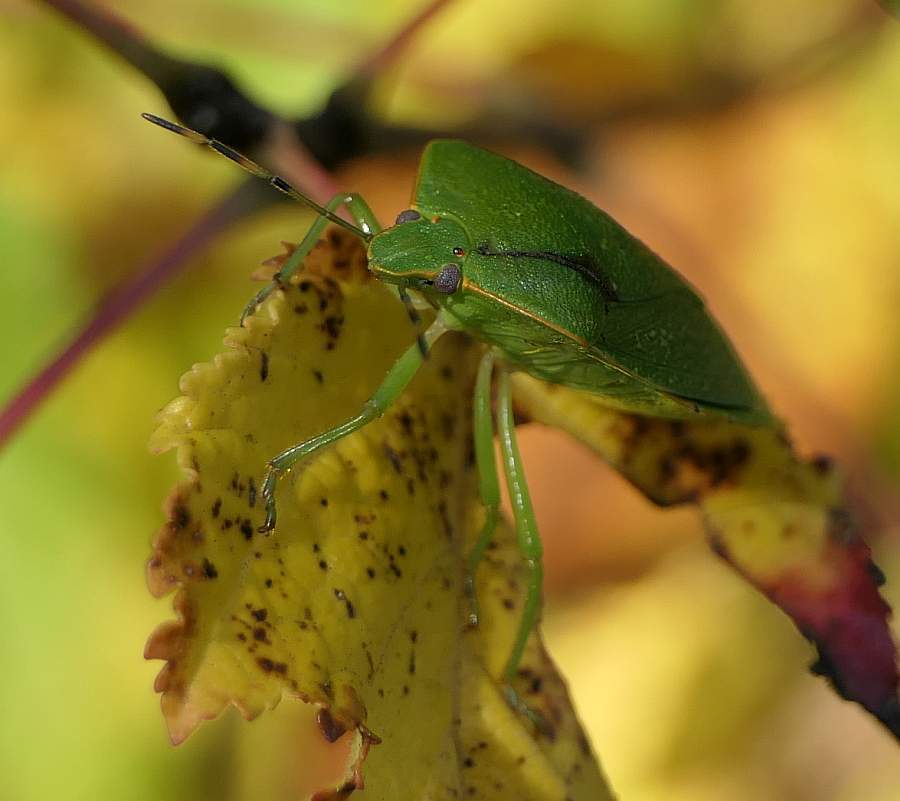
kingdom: Animalia
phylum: Arthropoda
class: Insecta
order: Hemiptera
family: Pentatomidae
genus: Chinavia
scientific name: Chinavia hilaris
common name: Green stink bug
